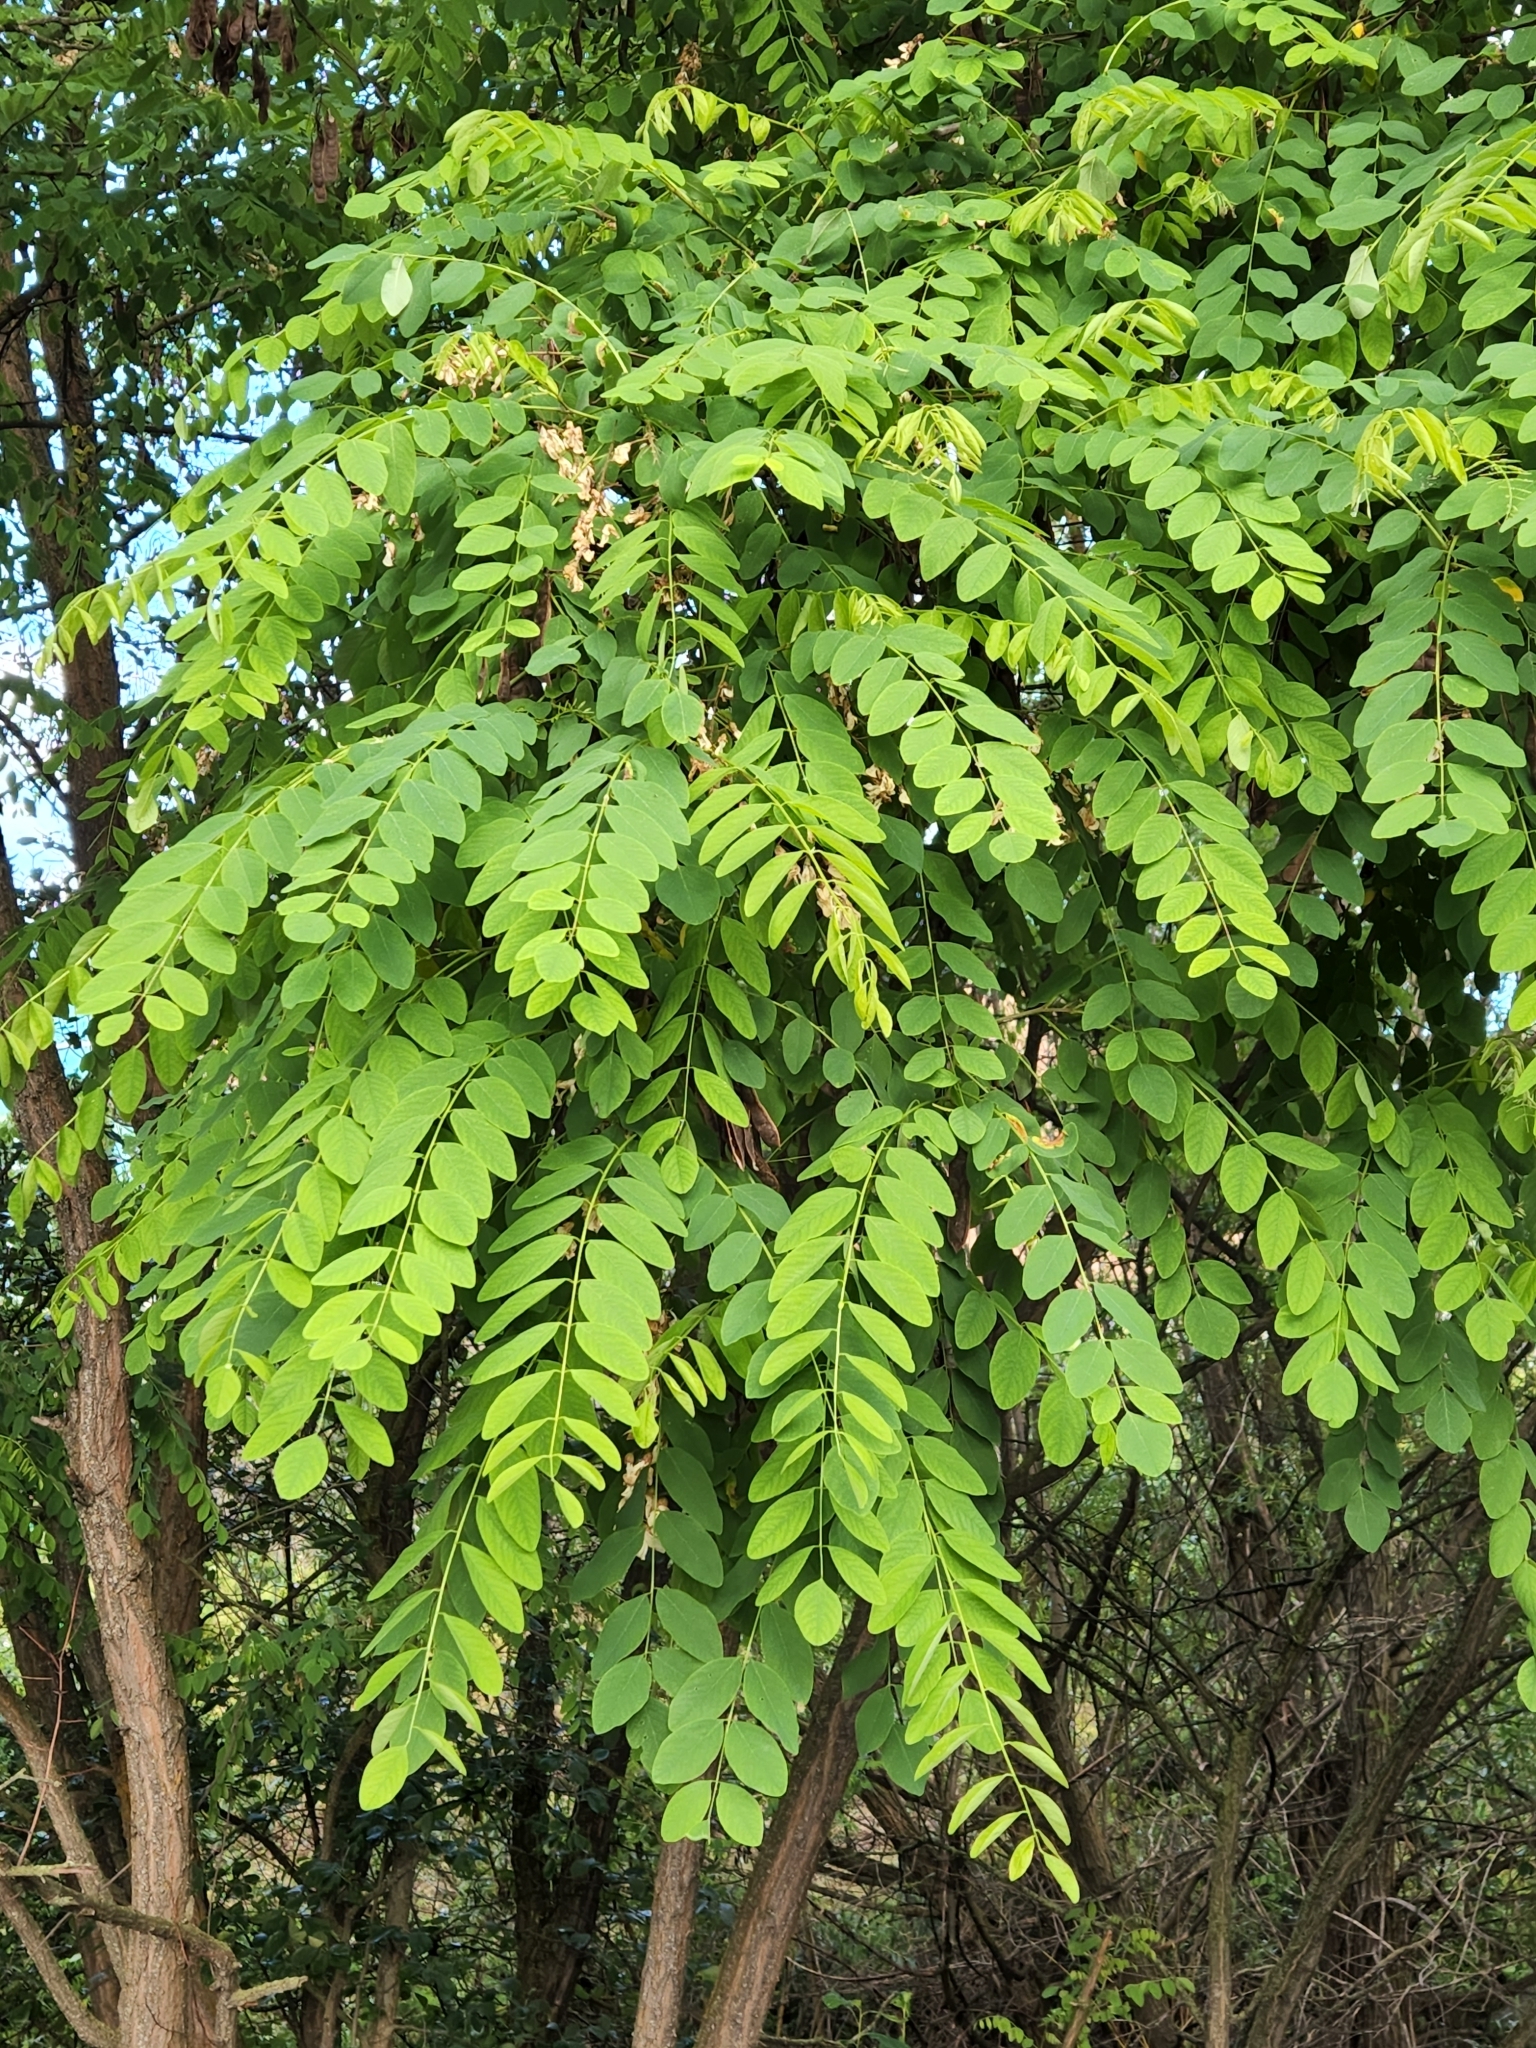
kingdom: Plantae
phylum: Tracheophyta
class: Magnoliopsida
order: Fabales
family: Fabaceae
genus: Robinia
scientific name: Robinia pseudoacacia
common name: Black locust
